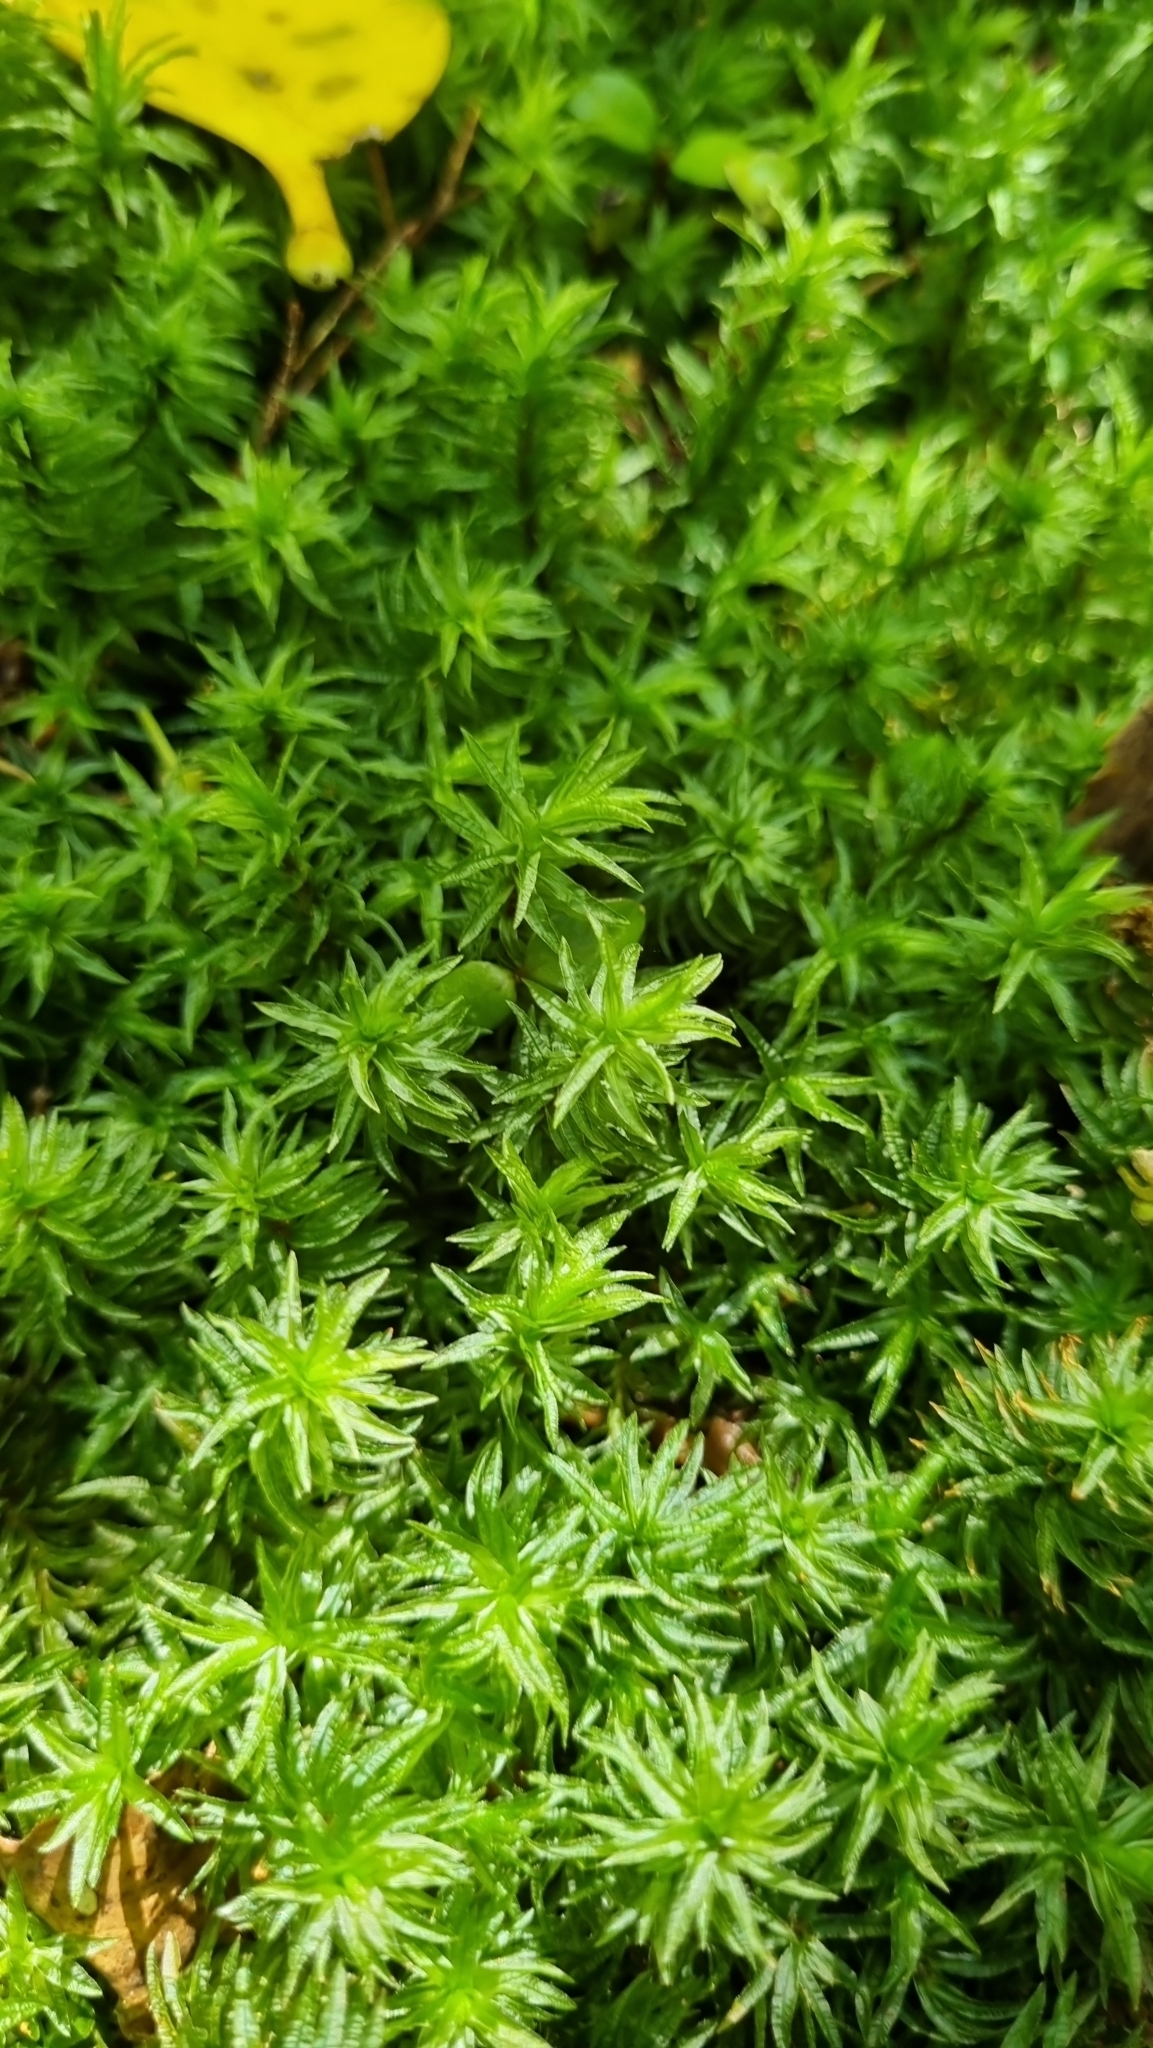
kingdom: Plantae
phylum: Bryophyta
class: Polytrichopsida
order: Polytrichales
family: Polytrichaceae
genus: Atrichum
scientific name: Atrichum androgynum
